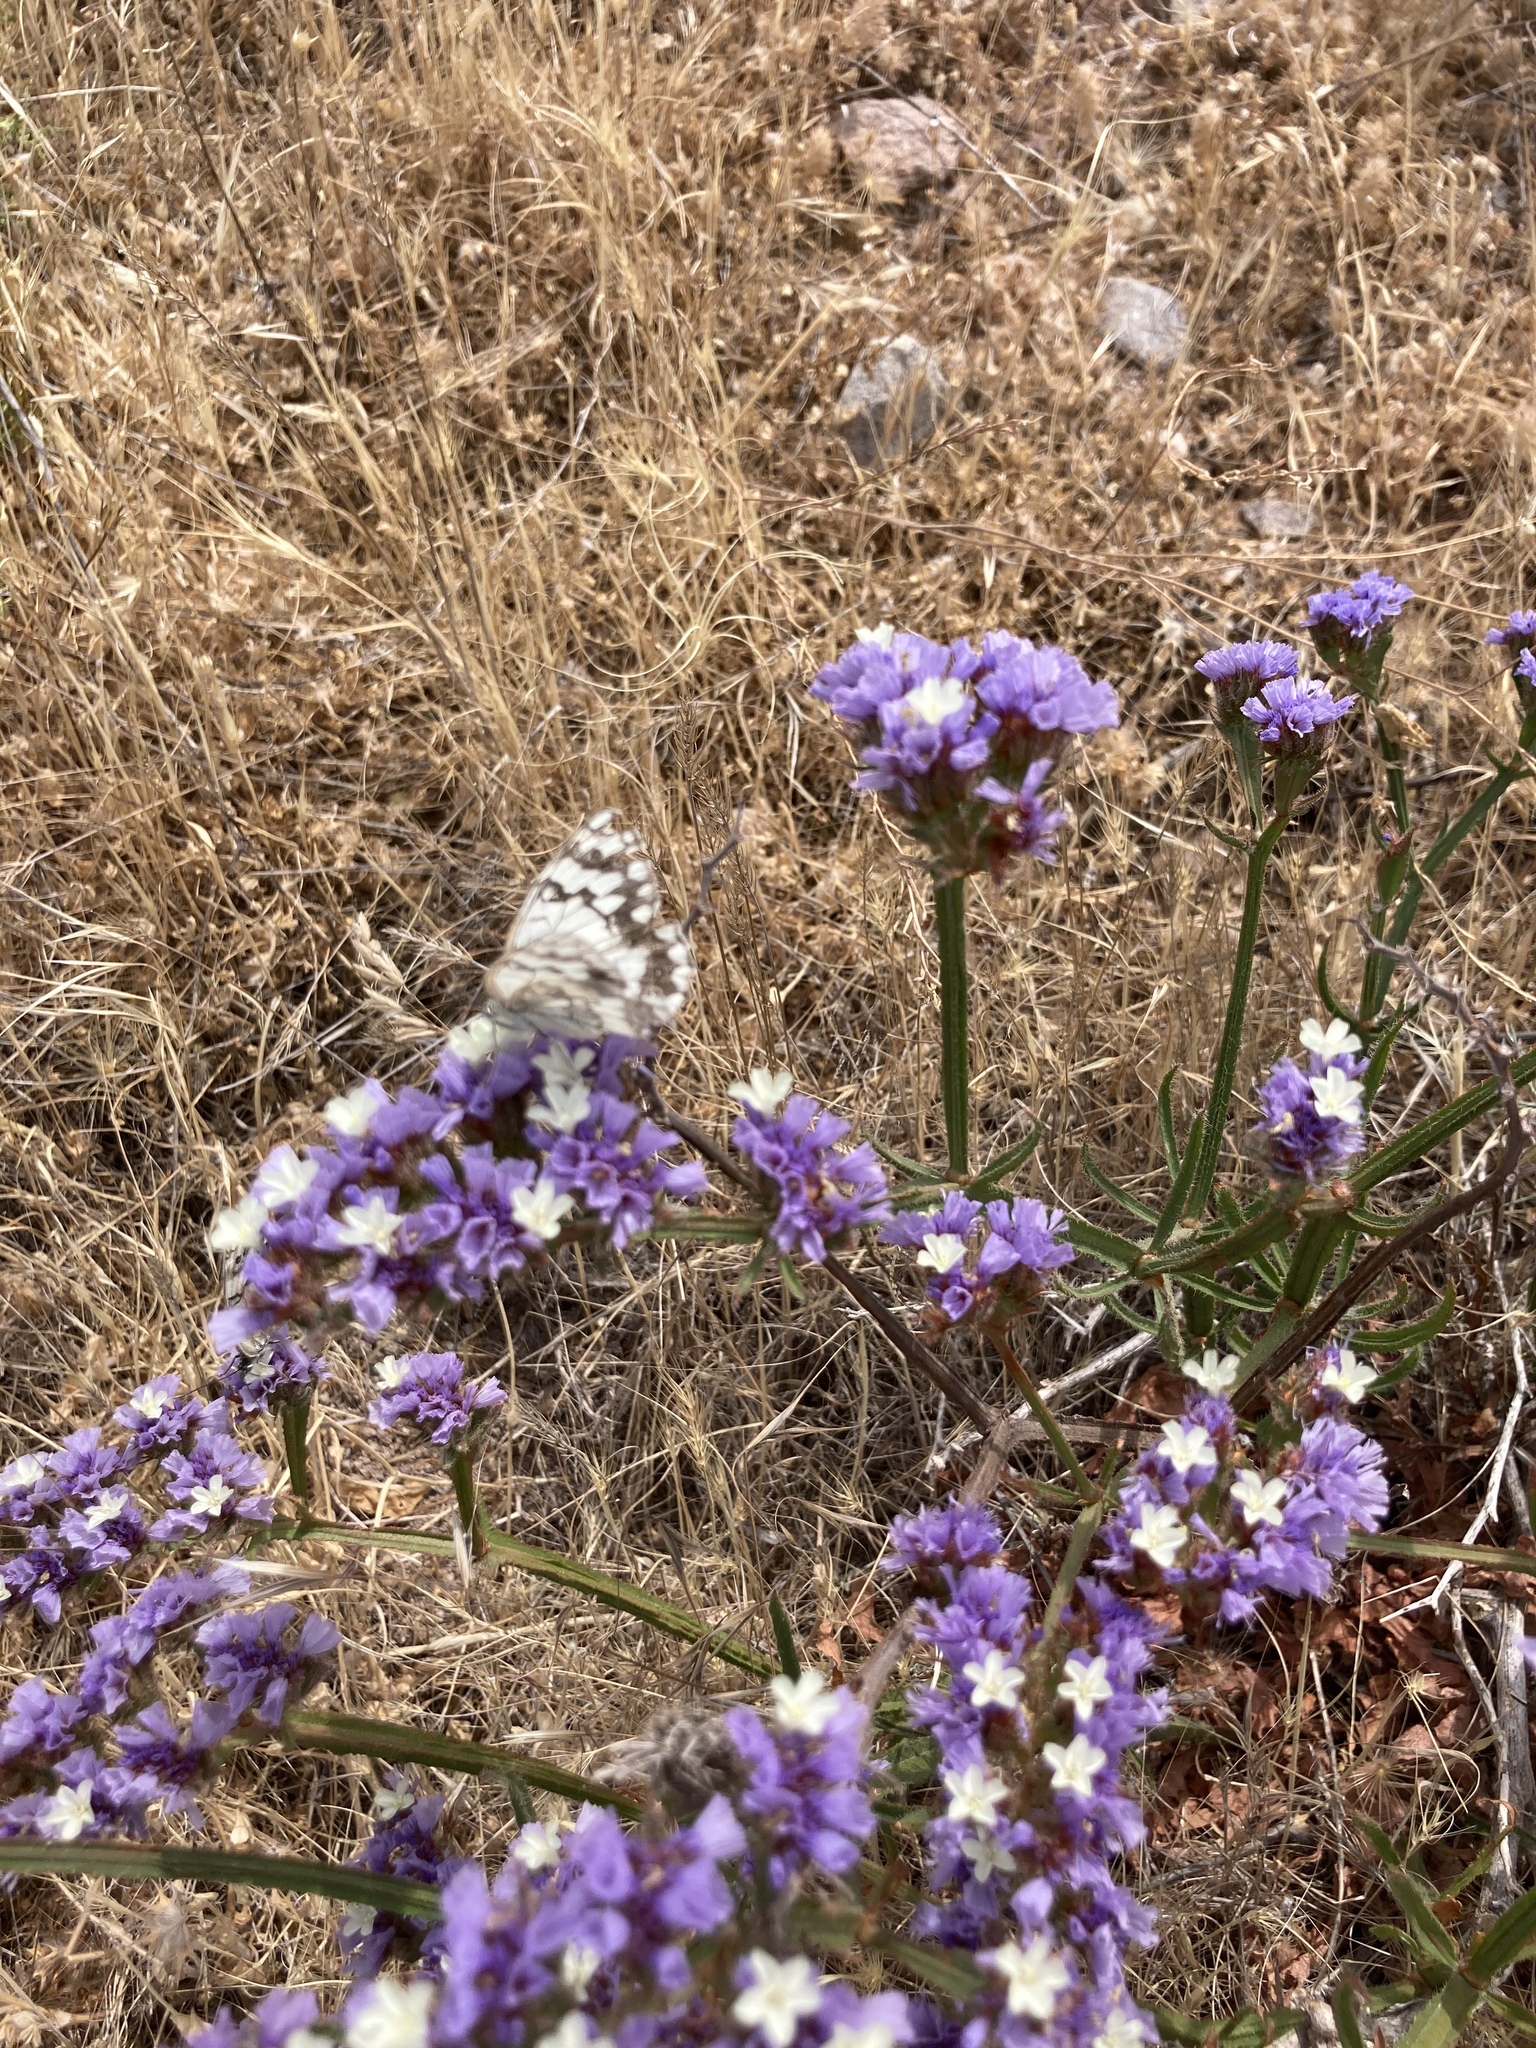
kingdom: Animalia
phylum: Arthropoda
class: Insecta
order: Lepidoptera
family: Nymphalidae
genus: Melanargia
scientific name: Melanargia larissa
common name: Balkan marbled white
